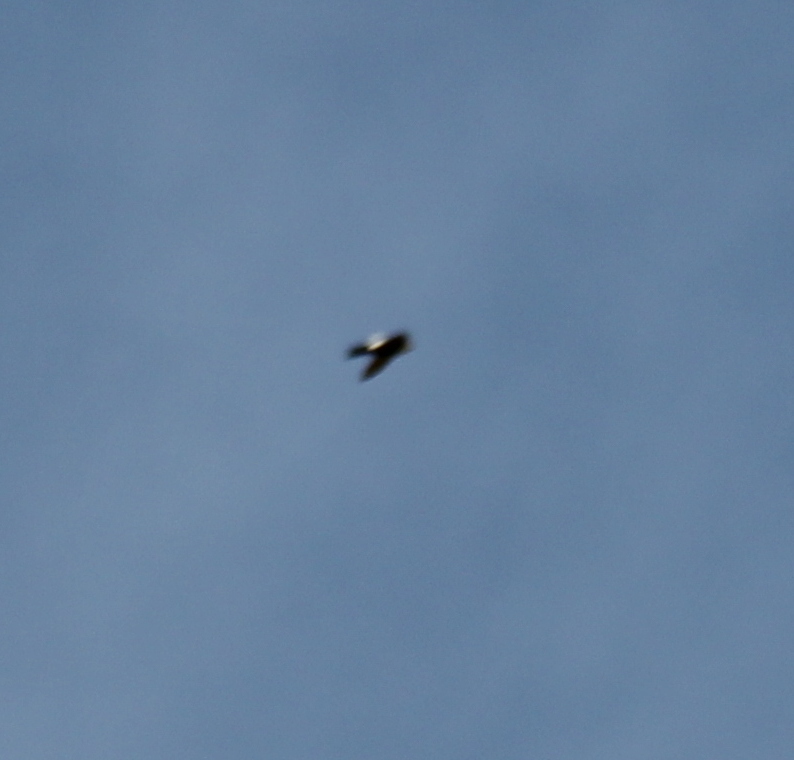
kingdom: Animalia
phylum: Chordata
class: Aves
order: Apodiformes
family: Apodidae
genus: Aeronautes
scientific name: Aeronautes saxatalis
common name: White-throated swift
